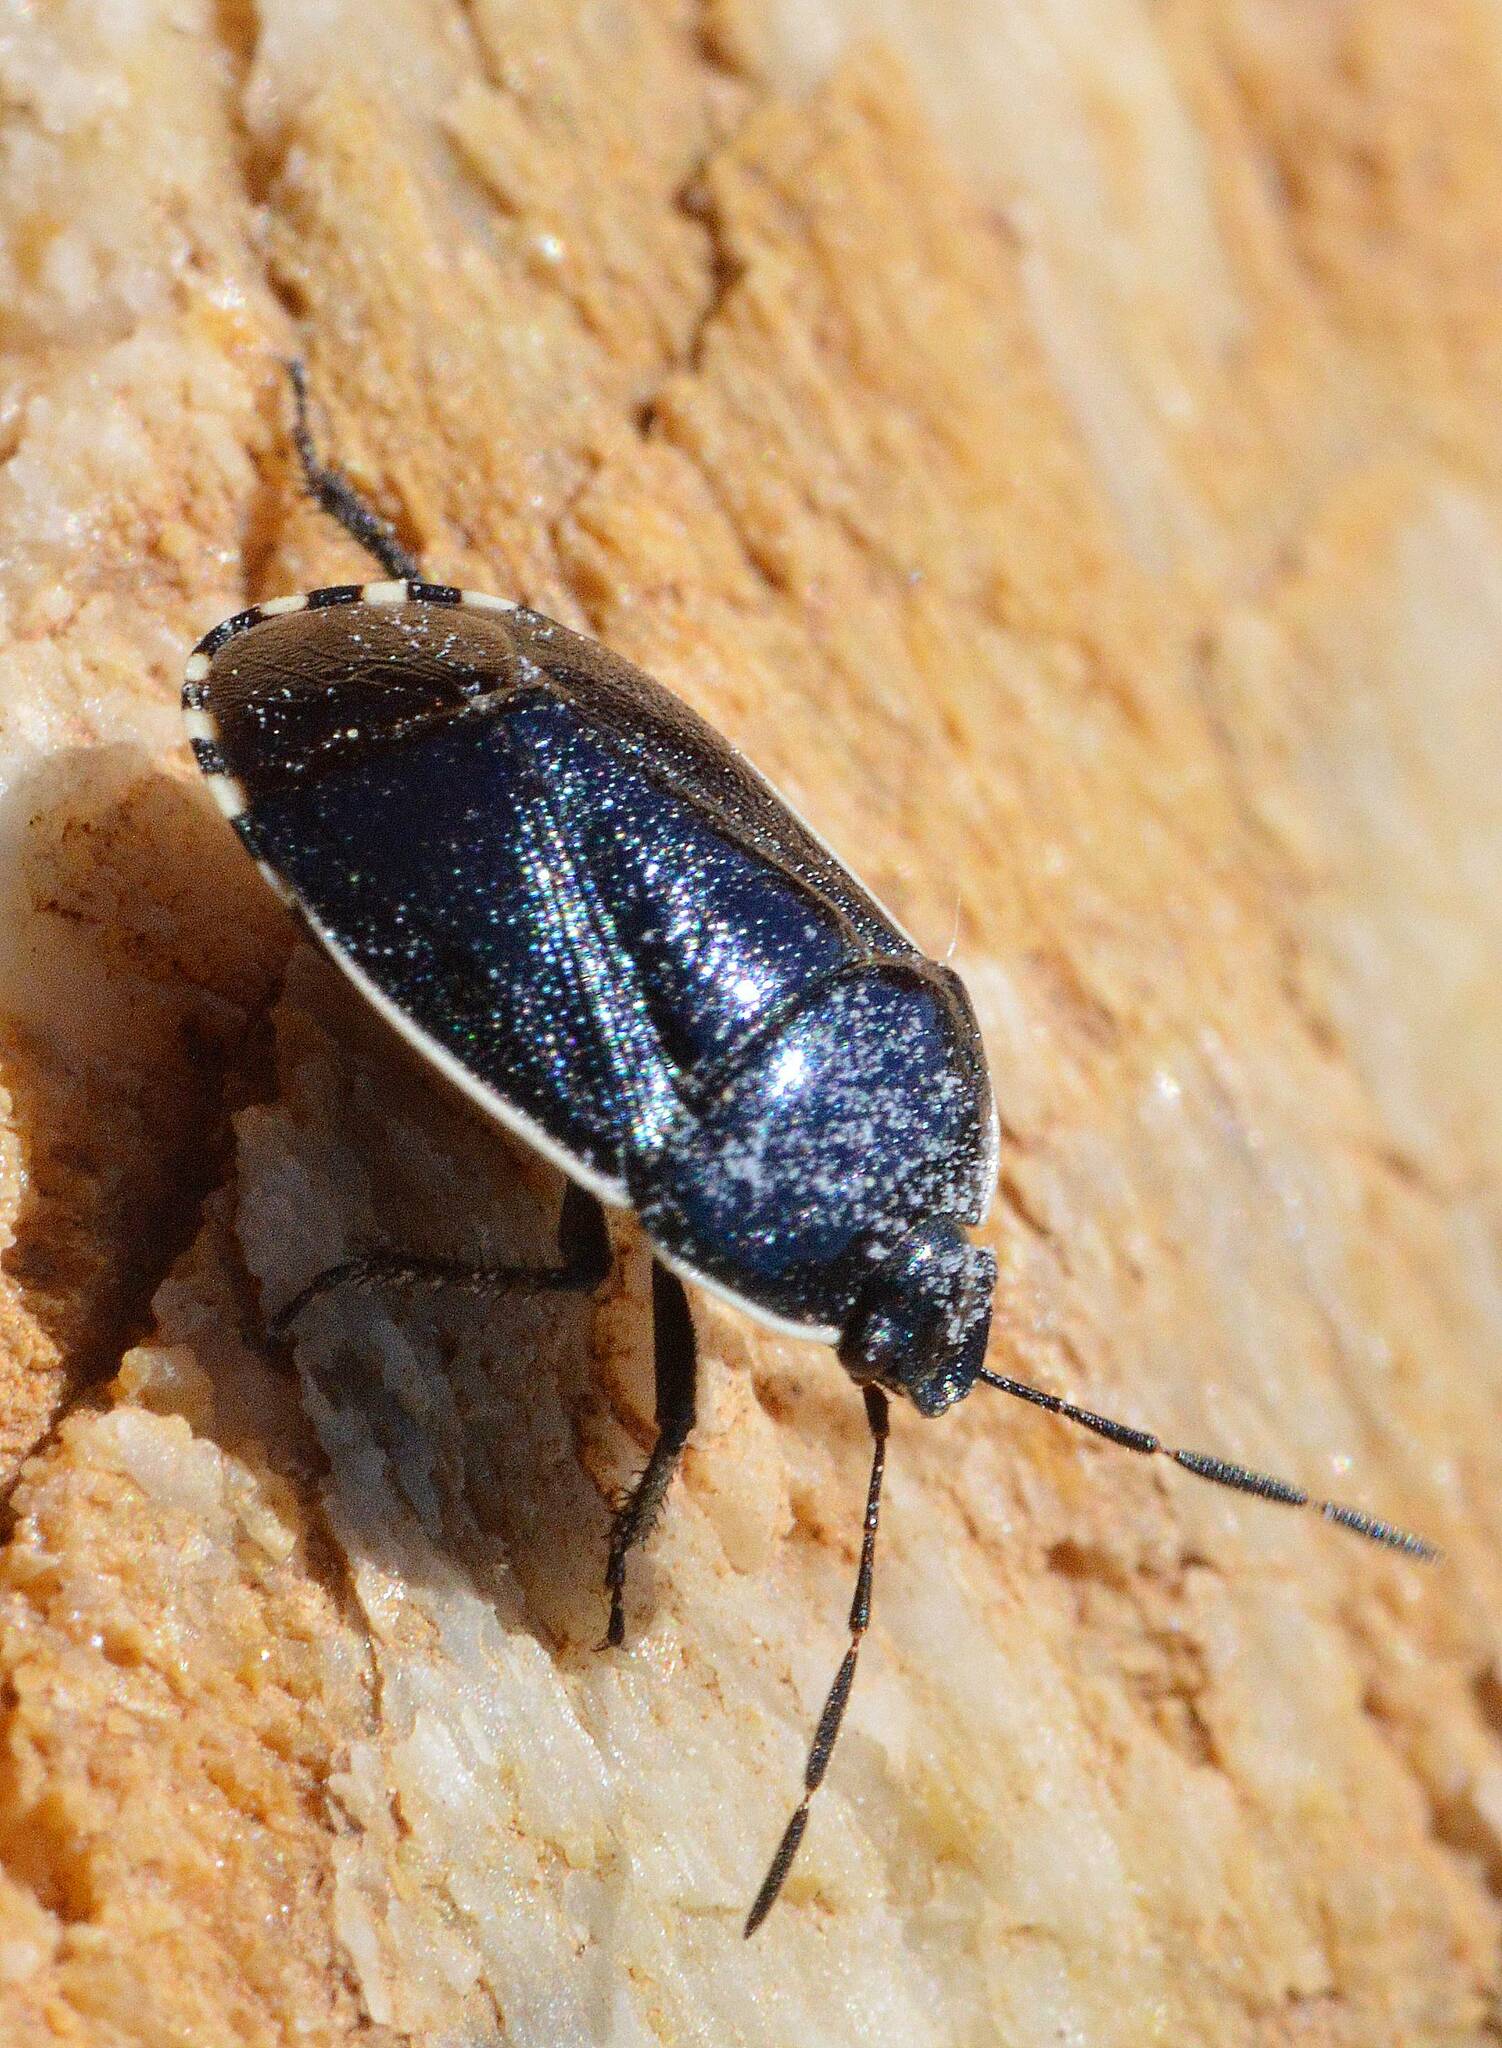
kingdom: Animalia
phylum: Arthropoda
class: Insecta
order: Hemiptera
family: Cydnidae
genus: Canthophorus
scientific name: Canthophorus melanopterus
